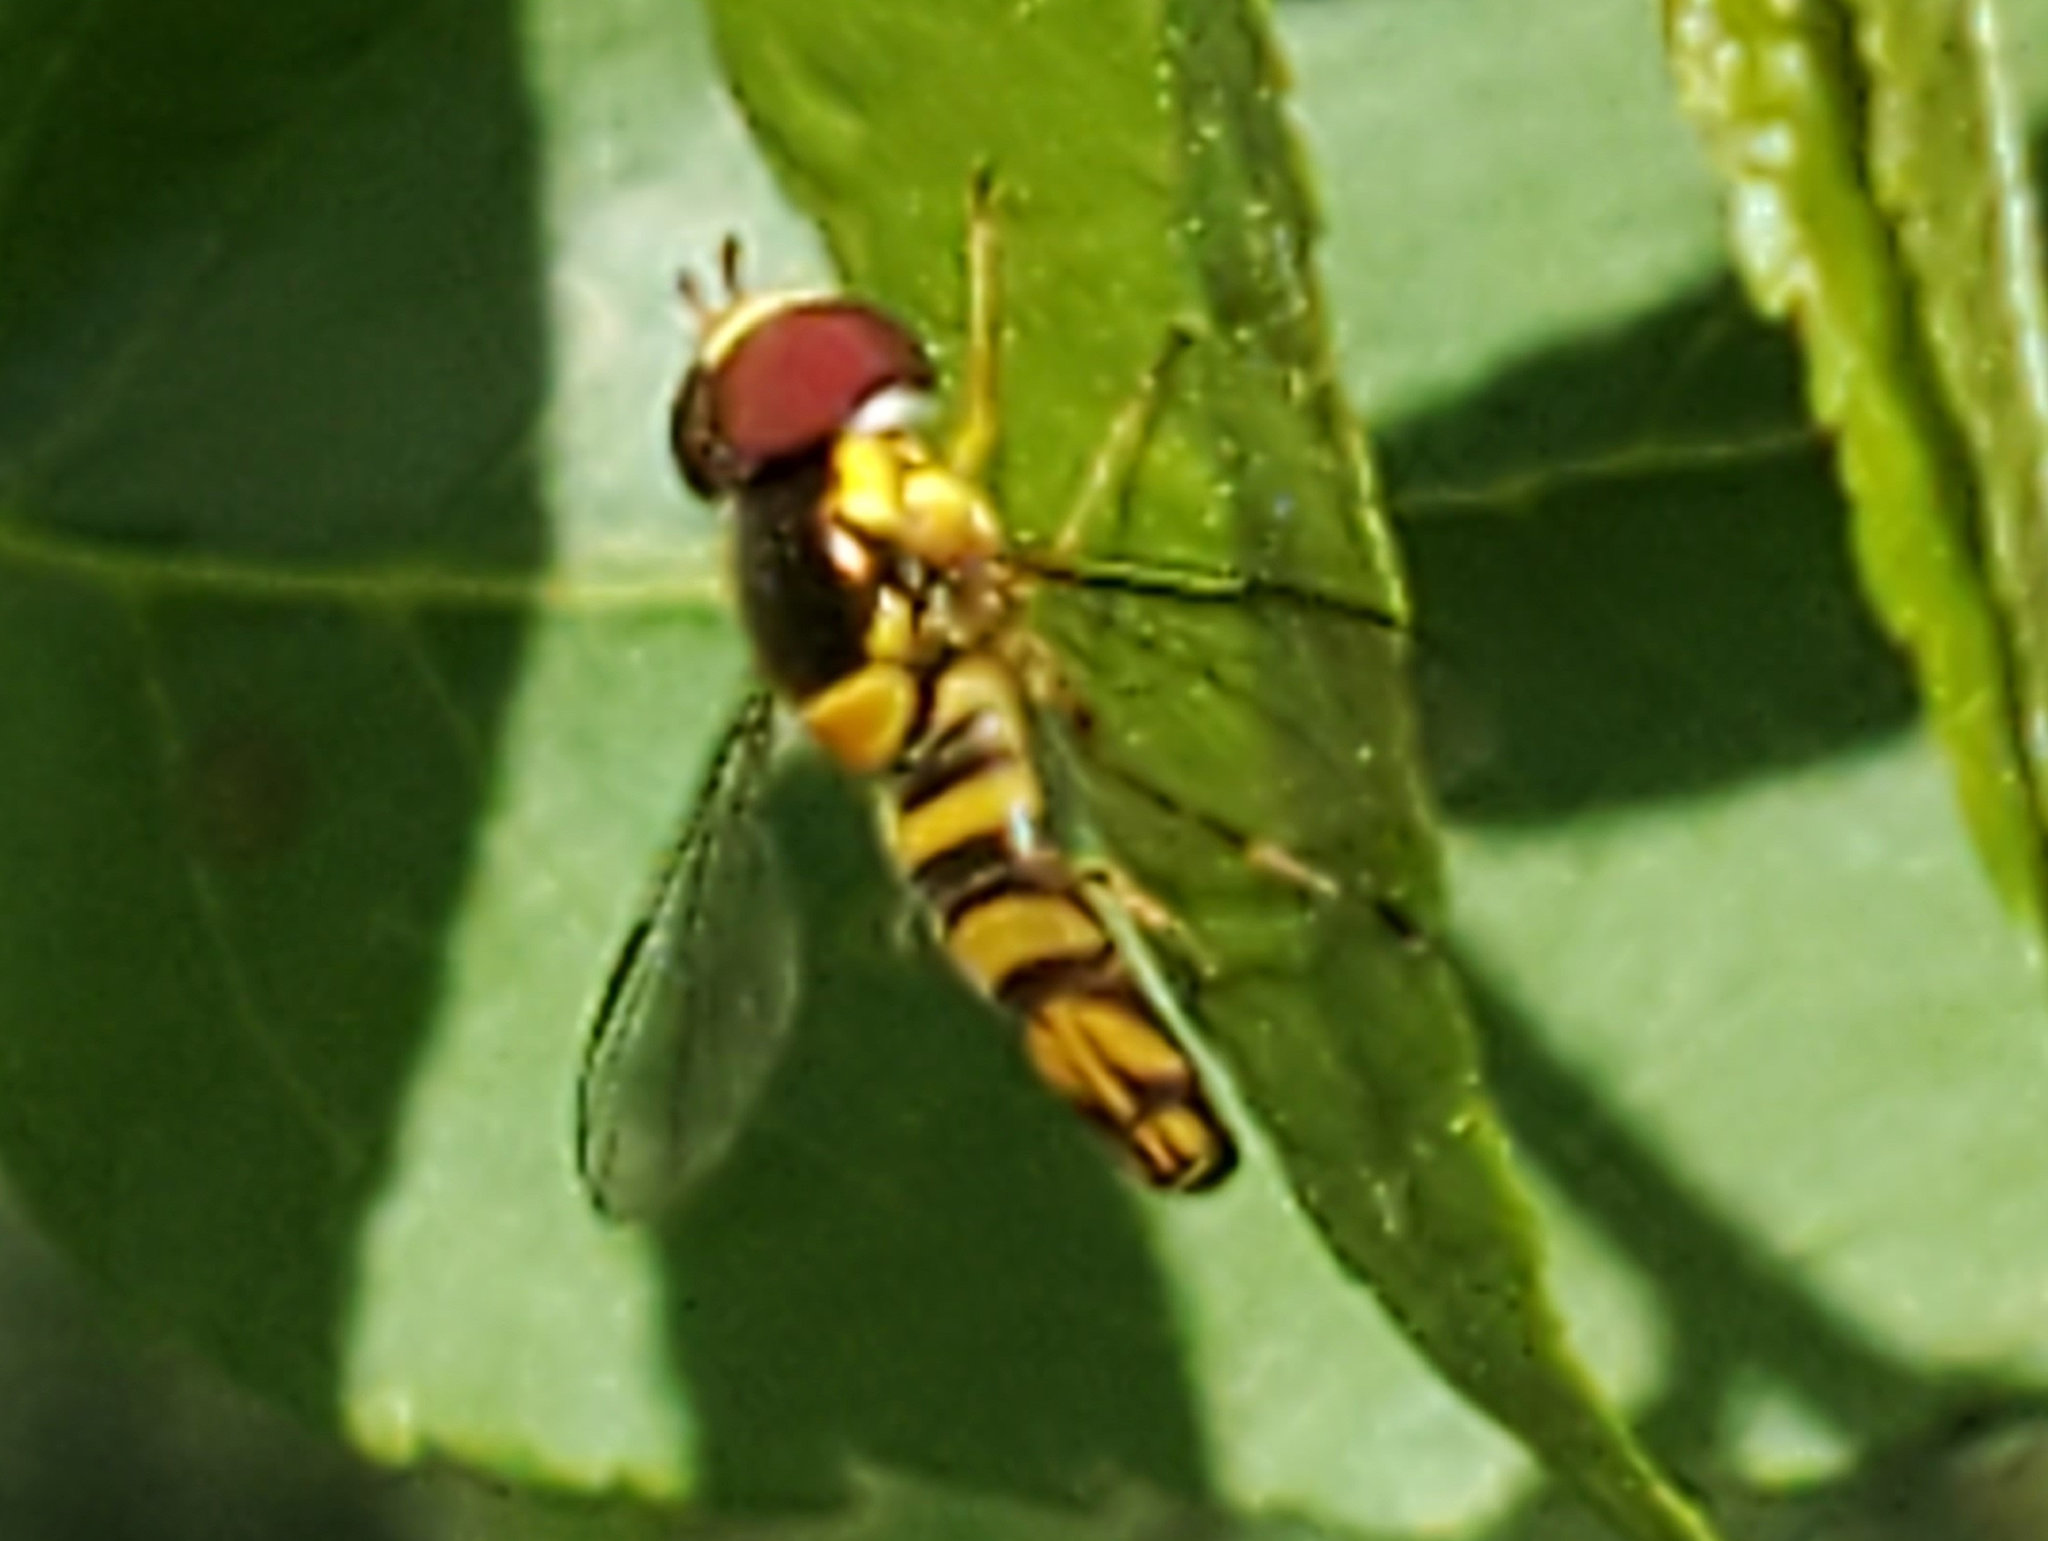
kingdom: Animalia
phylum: Arthropoda
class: Insecta
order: Diptera
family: Syrphidae
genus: Allograpta
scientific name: Allograpta obliqua
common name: Common oblique syrphid
